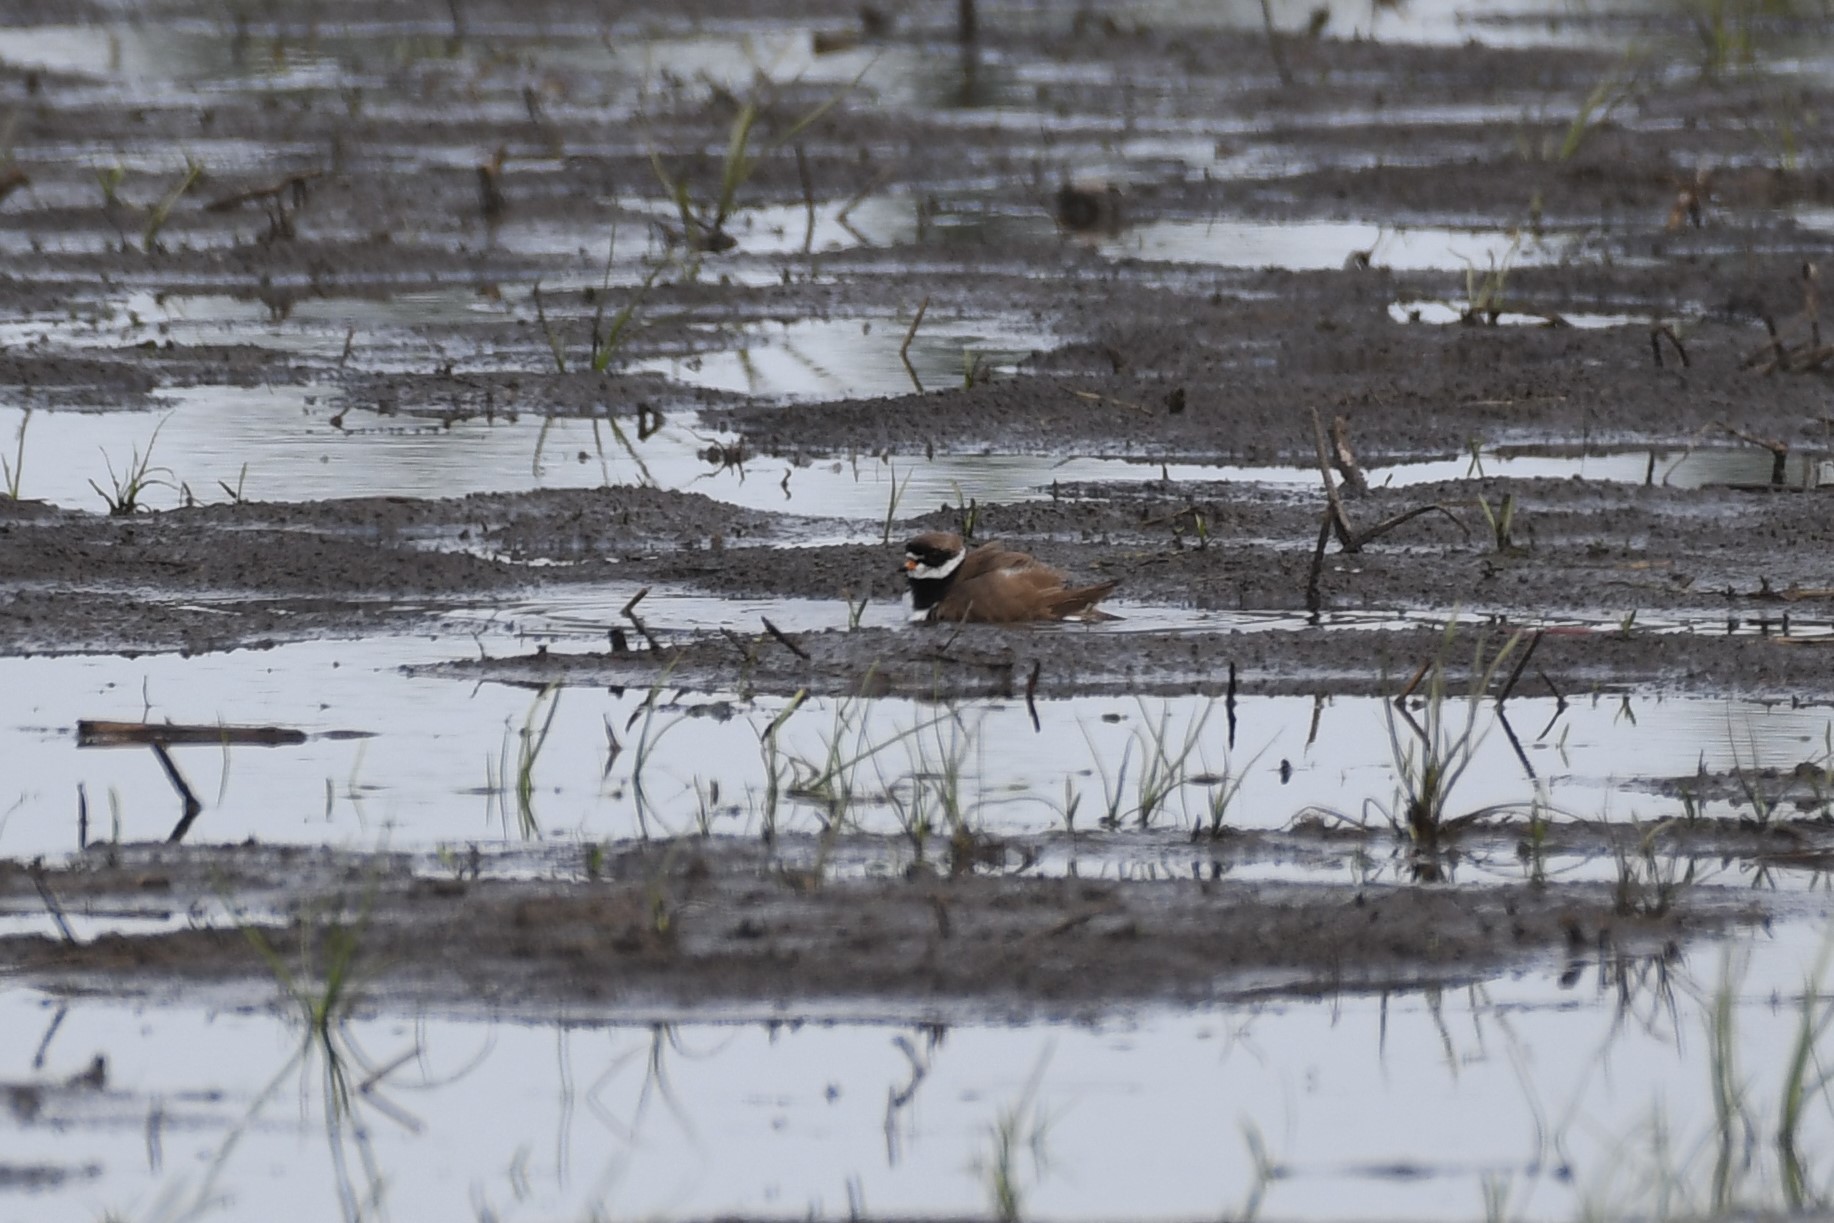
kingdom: Animalia
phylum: Chordata
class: Aves
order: Charadriiformes
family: Charadriidae
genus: Charadrius
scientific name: Charadrius semipalmatus
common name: Semipalmated plover
